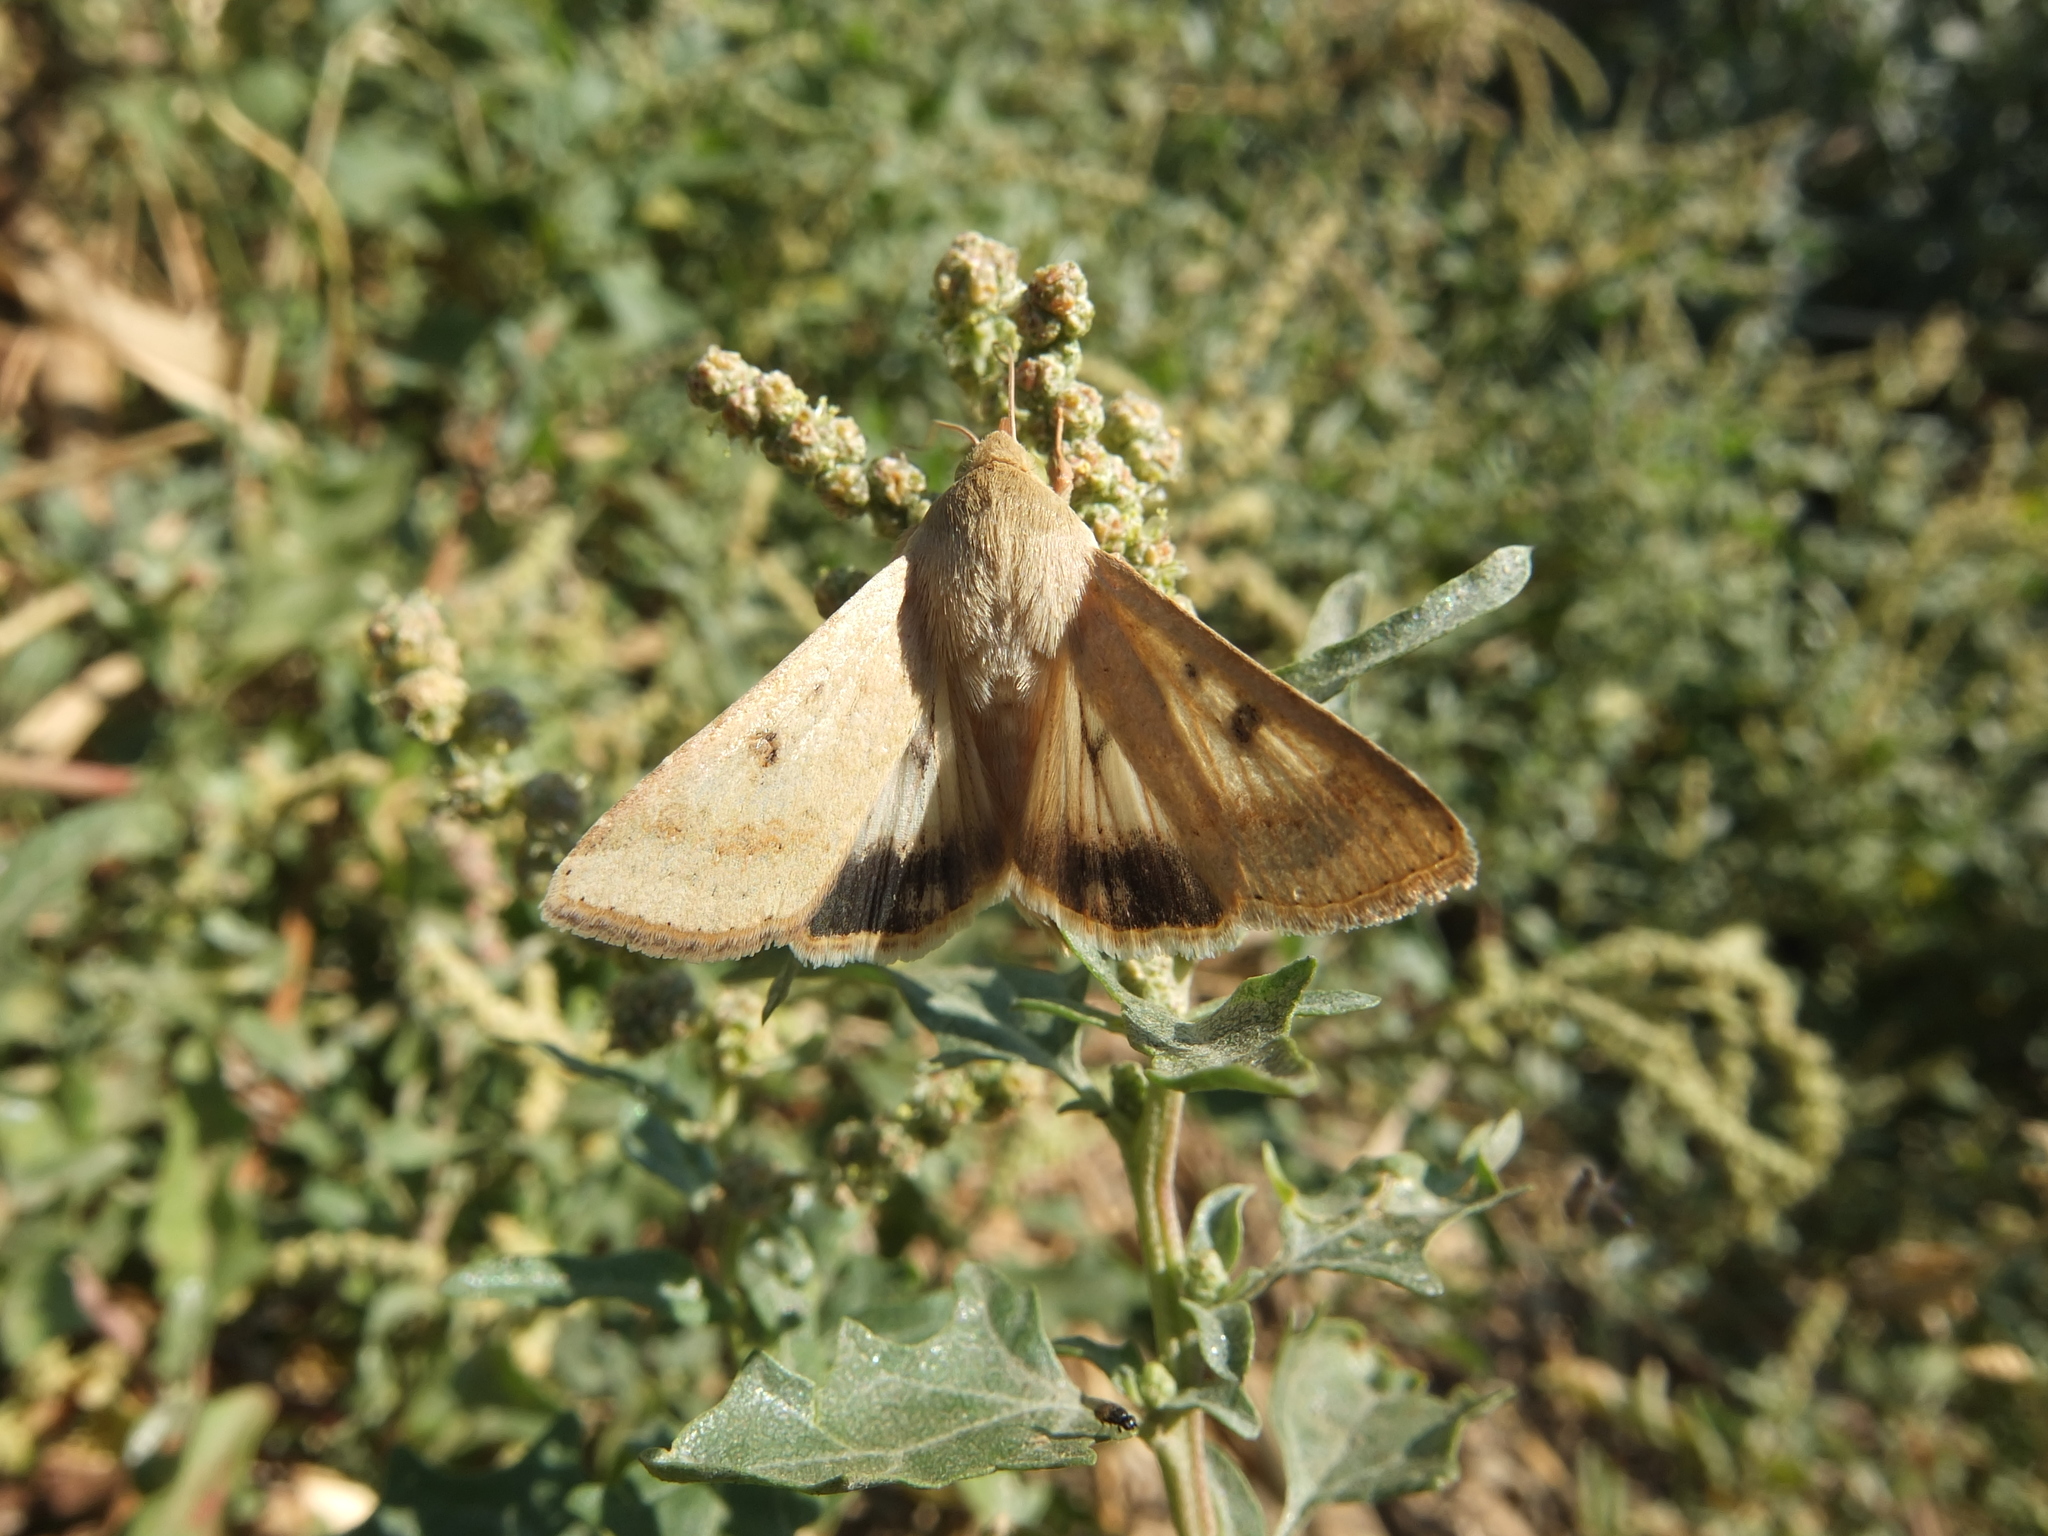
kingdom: Animalia
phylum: Arthropoda
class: Insecta
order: Lepidoptera
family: Noctuidae
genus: Helicoverpa
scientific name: Helicoverpa armigera
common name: Cotton bollworm
